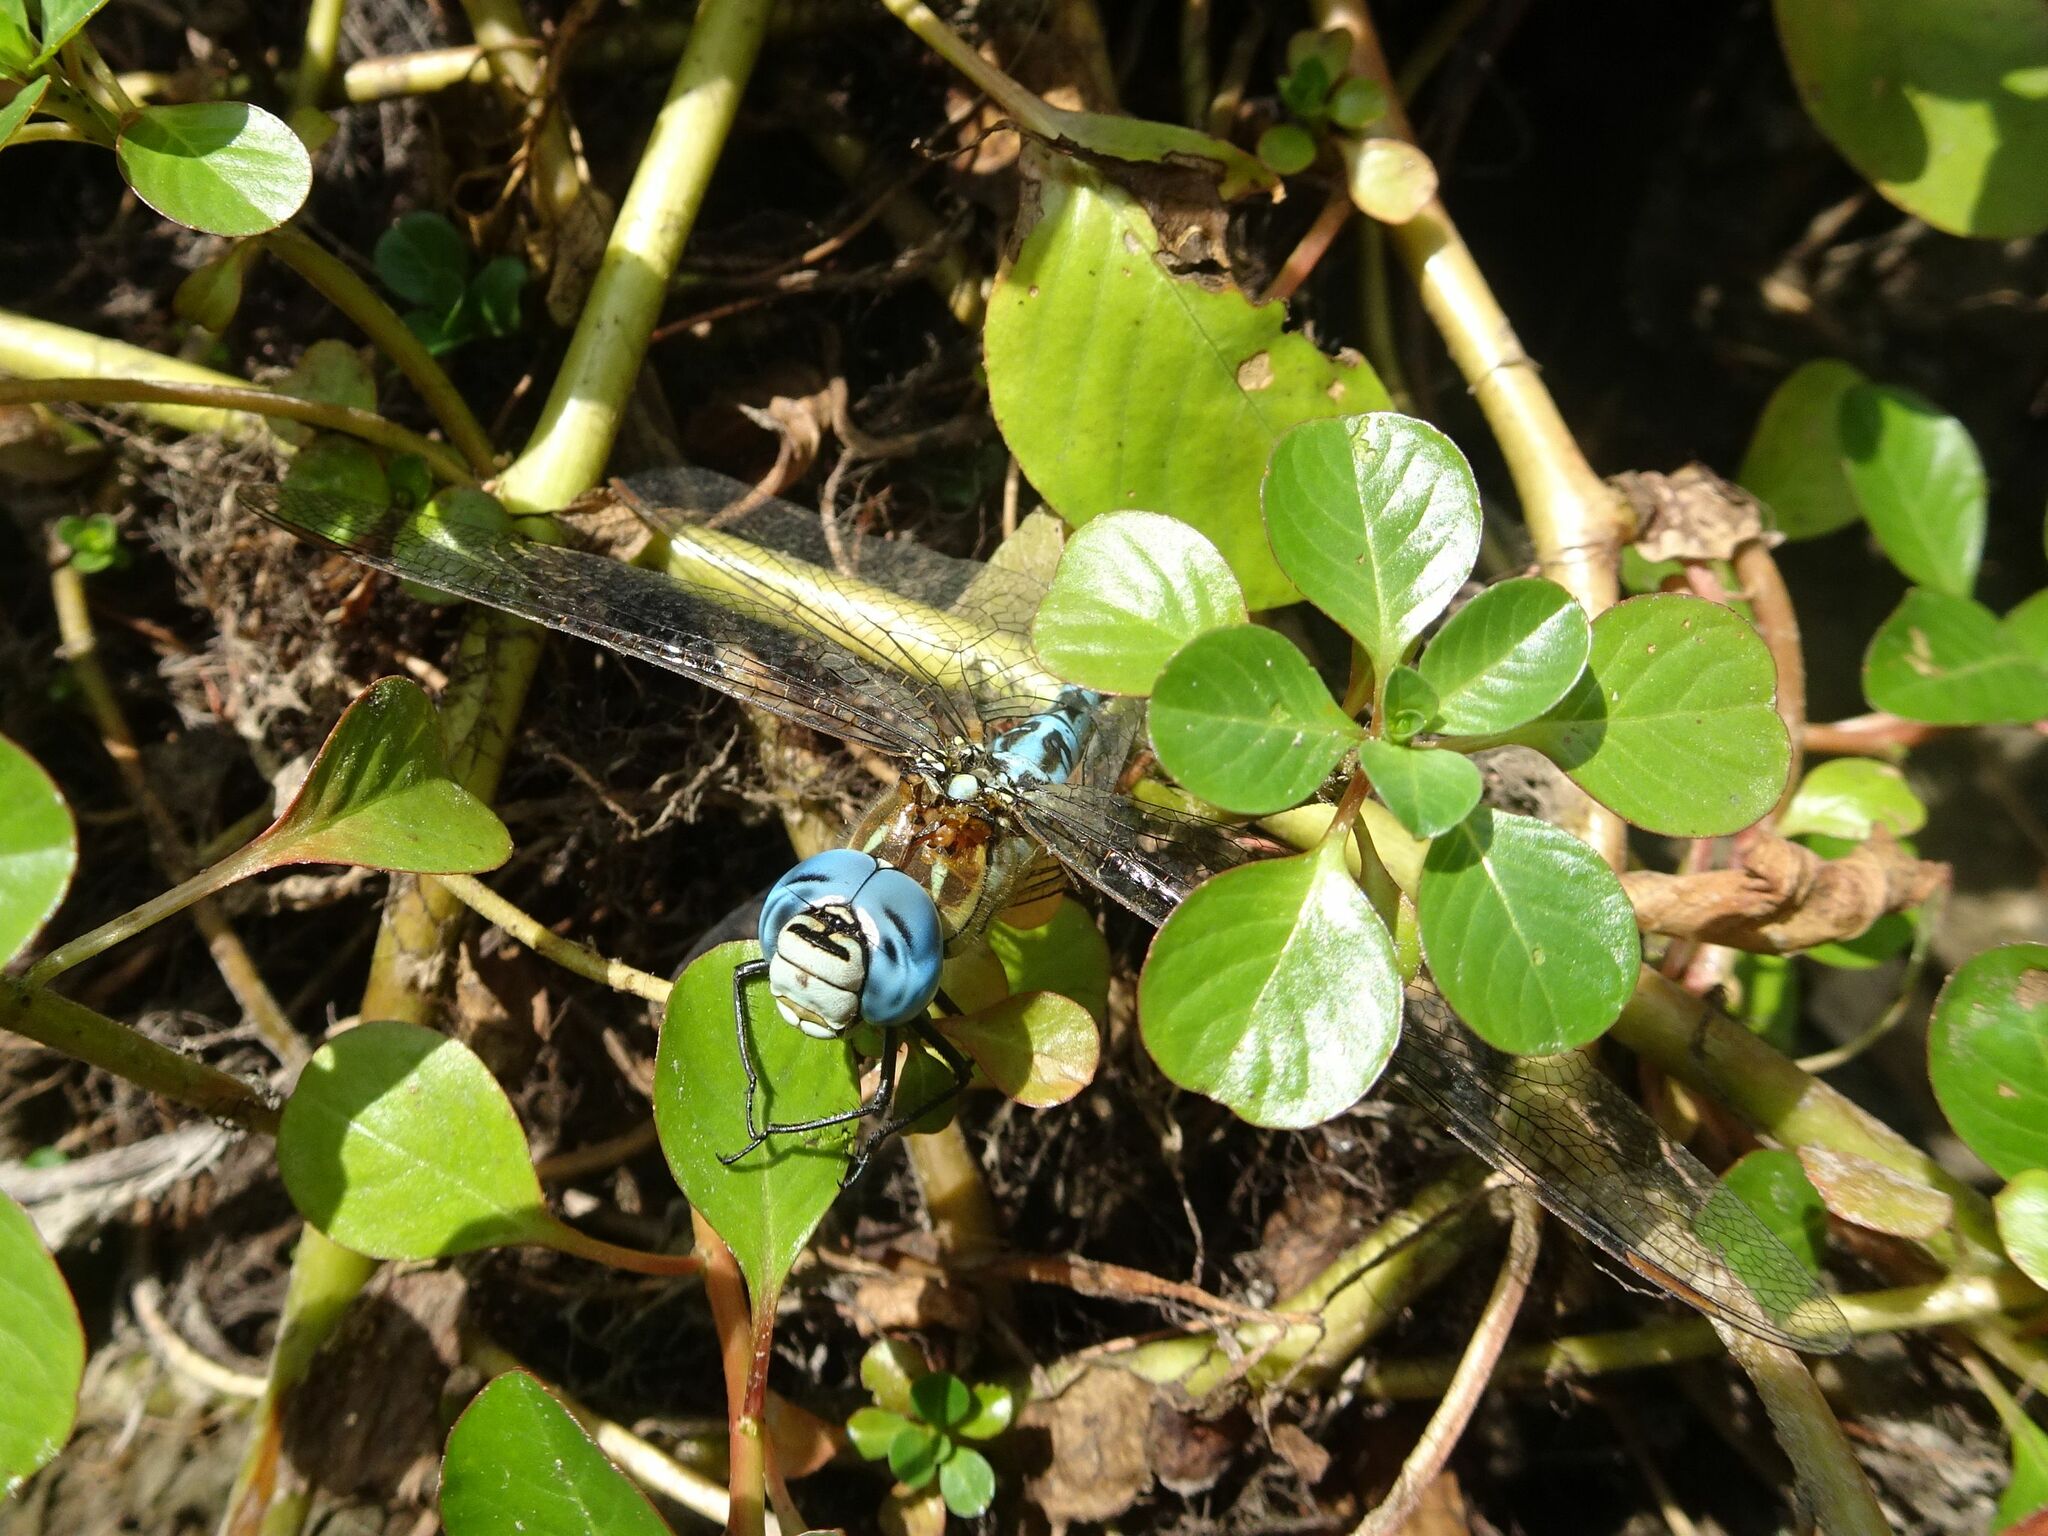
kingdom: Animalia
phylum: Arthropoda
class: Insecta
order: Odonata
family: Aeshnidae
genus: Aeshna
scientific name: Aeshna affinis
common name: Southern migrant hawker
